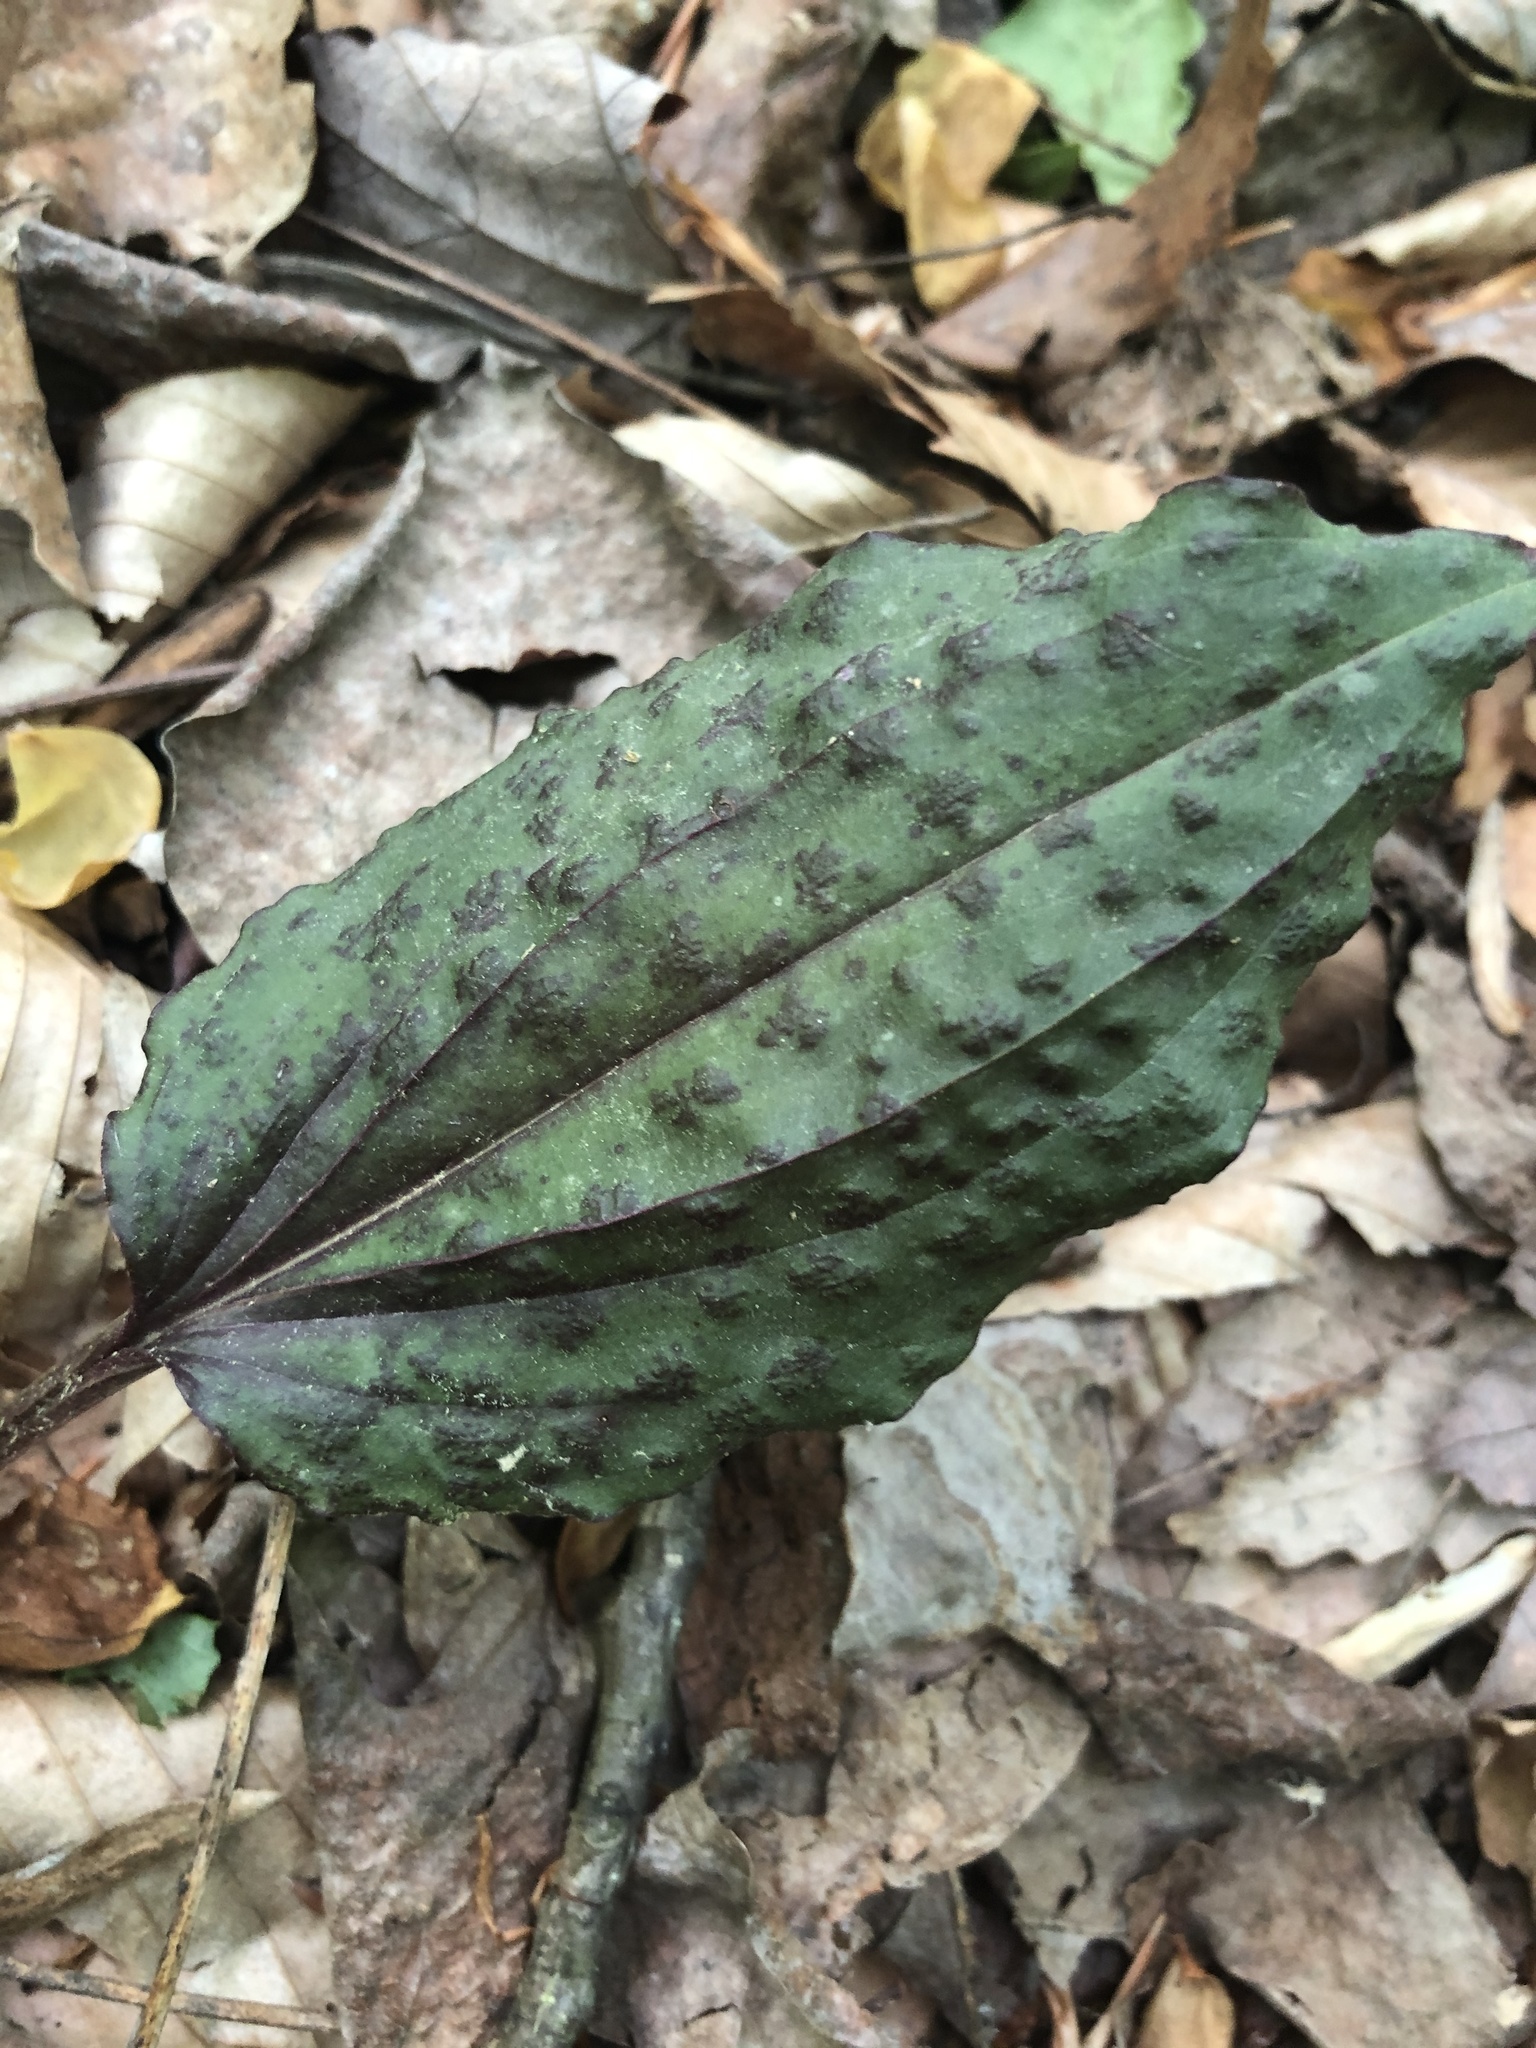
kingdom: Plantae
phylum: Tracheophyta
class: Liliopsida
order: Asparagales
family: Orchidaceae
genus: Tipularia
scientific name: Tipularia discolor
